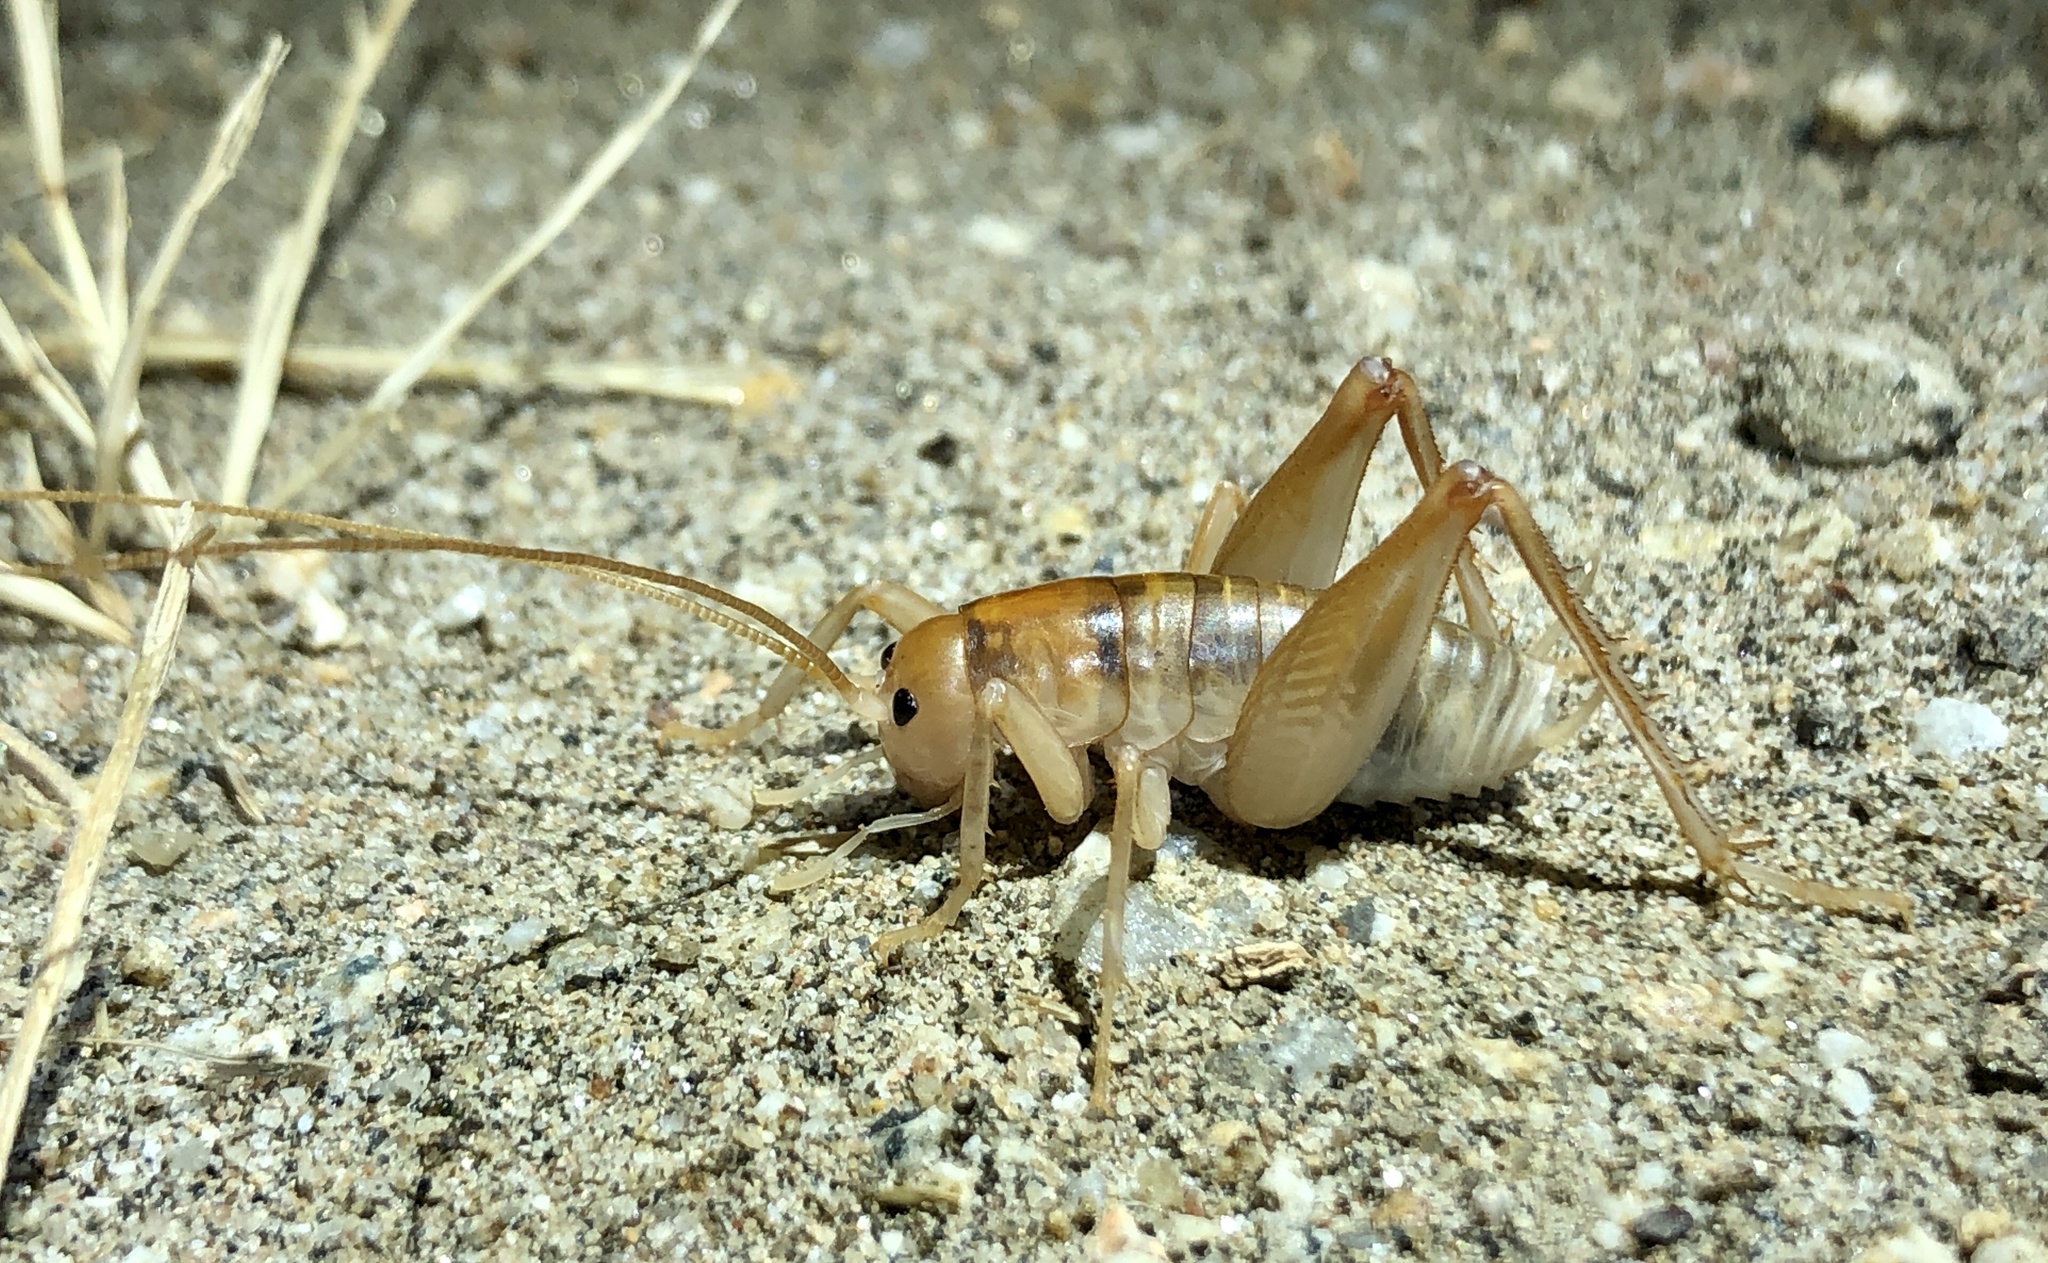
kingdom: Animalia
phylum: Arthropoda
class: Insecta
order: Orthoptera
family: Rhaphidophoridae
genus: Ceuthophilus
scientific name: Ceuthophilus hesperus
